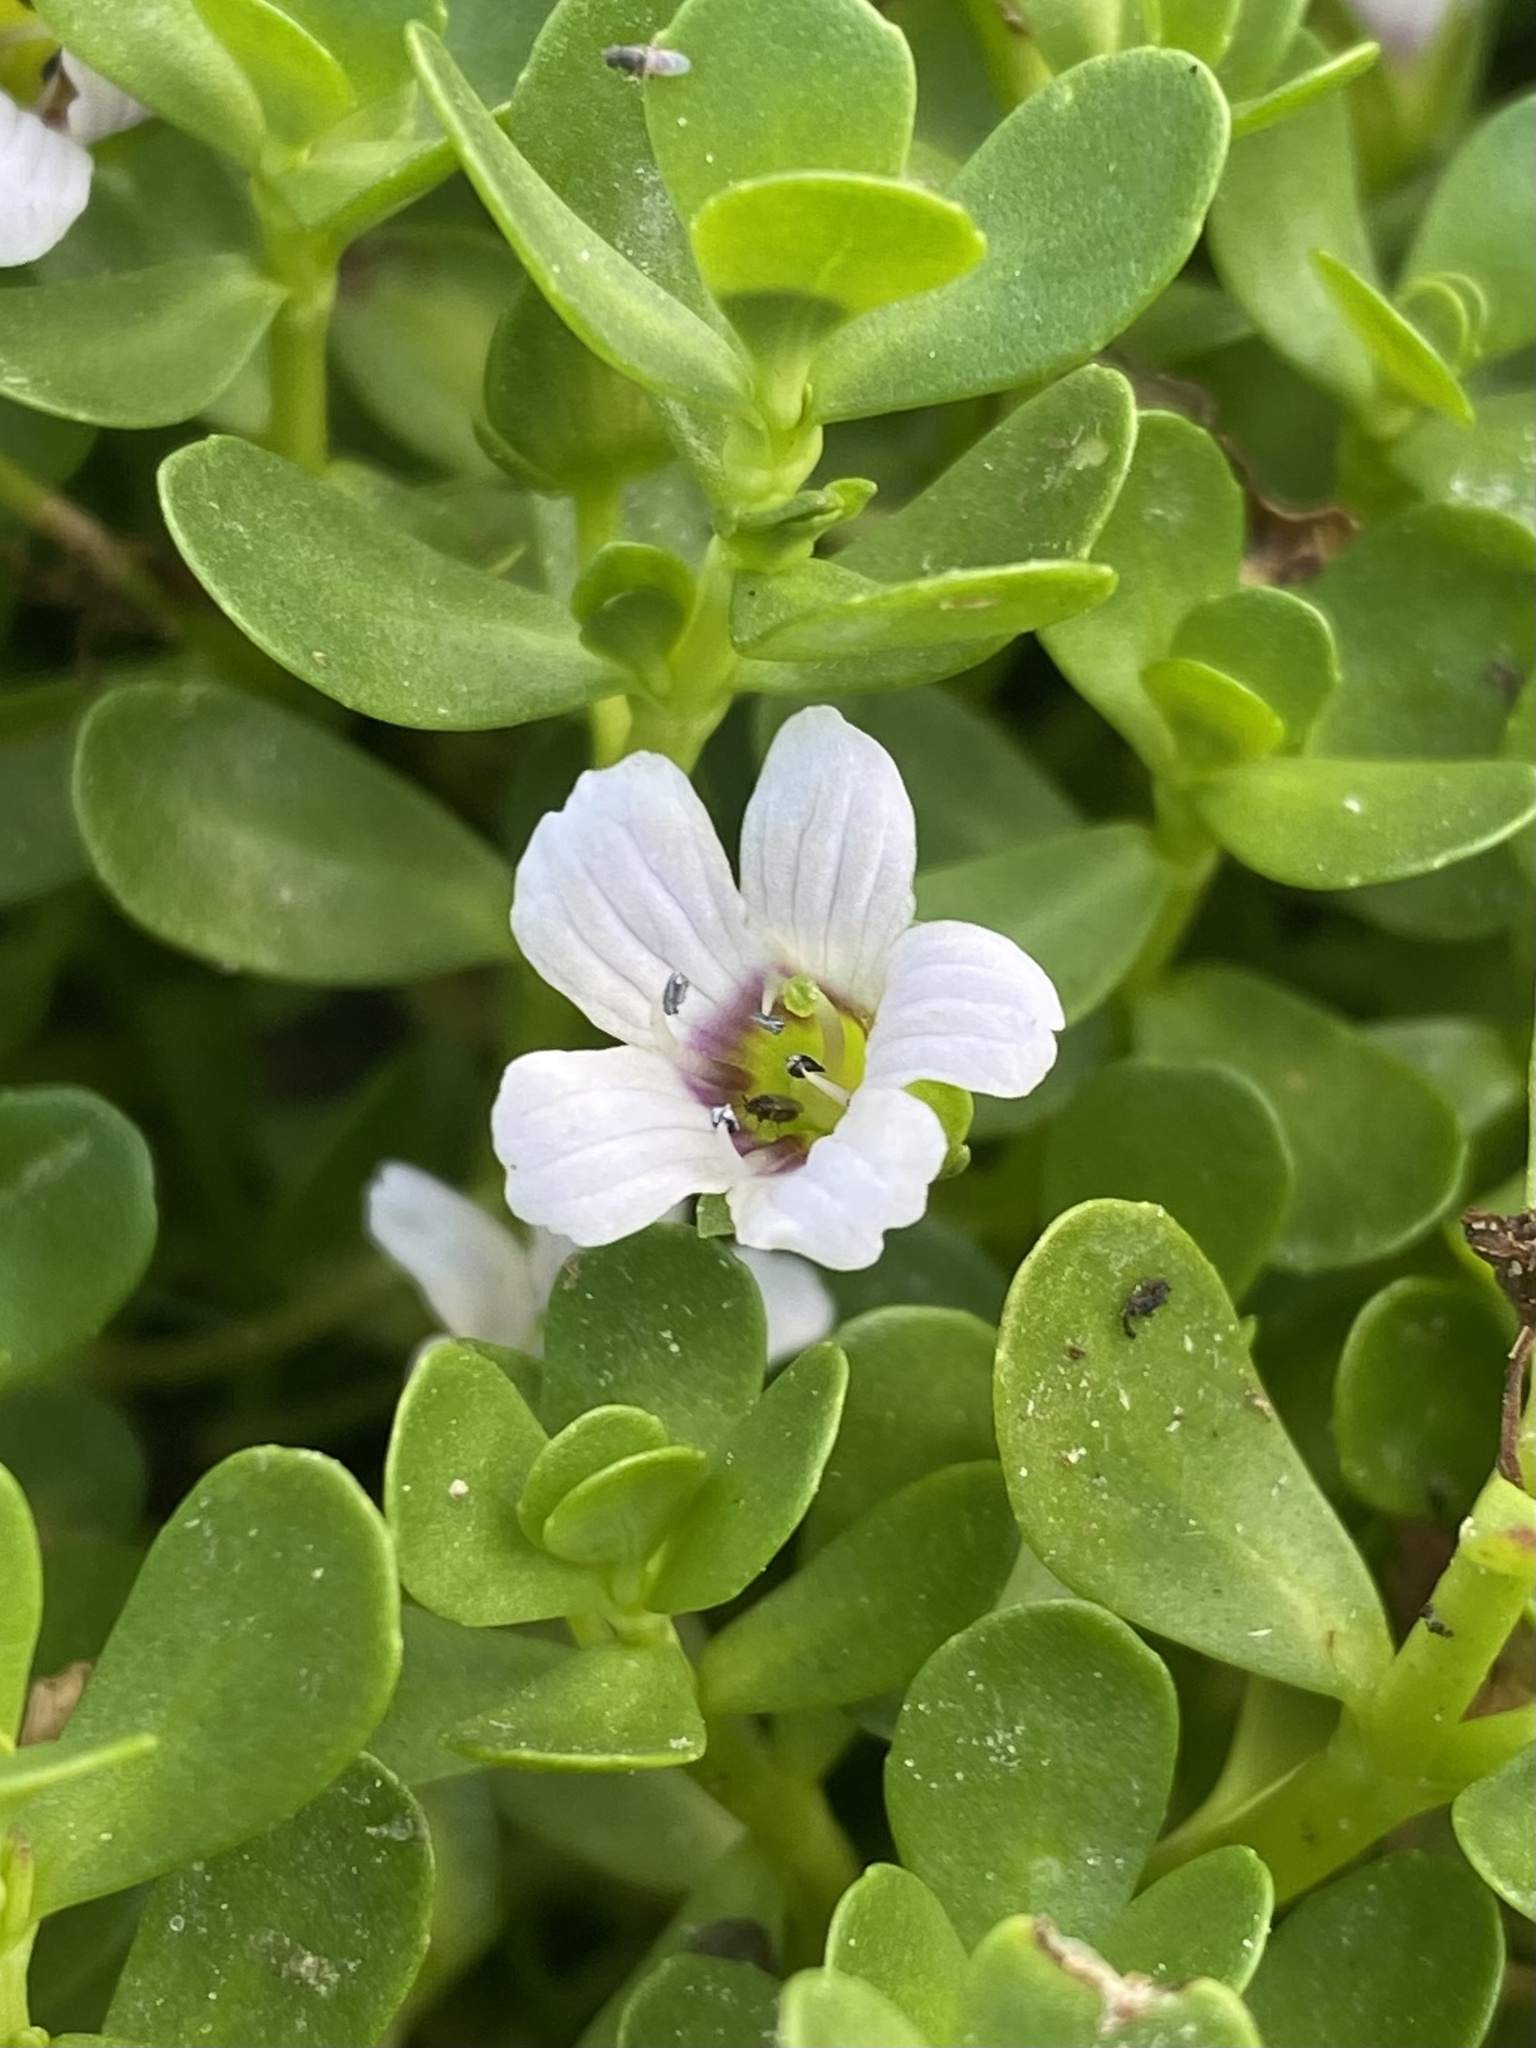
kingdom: Plantae
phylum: Tracheophyta
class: Magnoliopsida
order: Lamiales
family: Plantaginaceae
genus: Bacopa
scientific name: Bacopa monnieri
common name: Indian-pennywort
